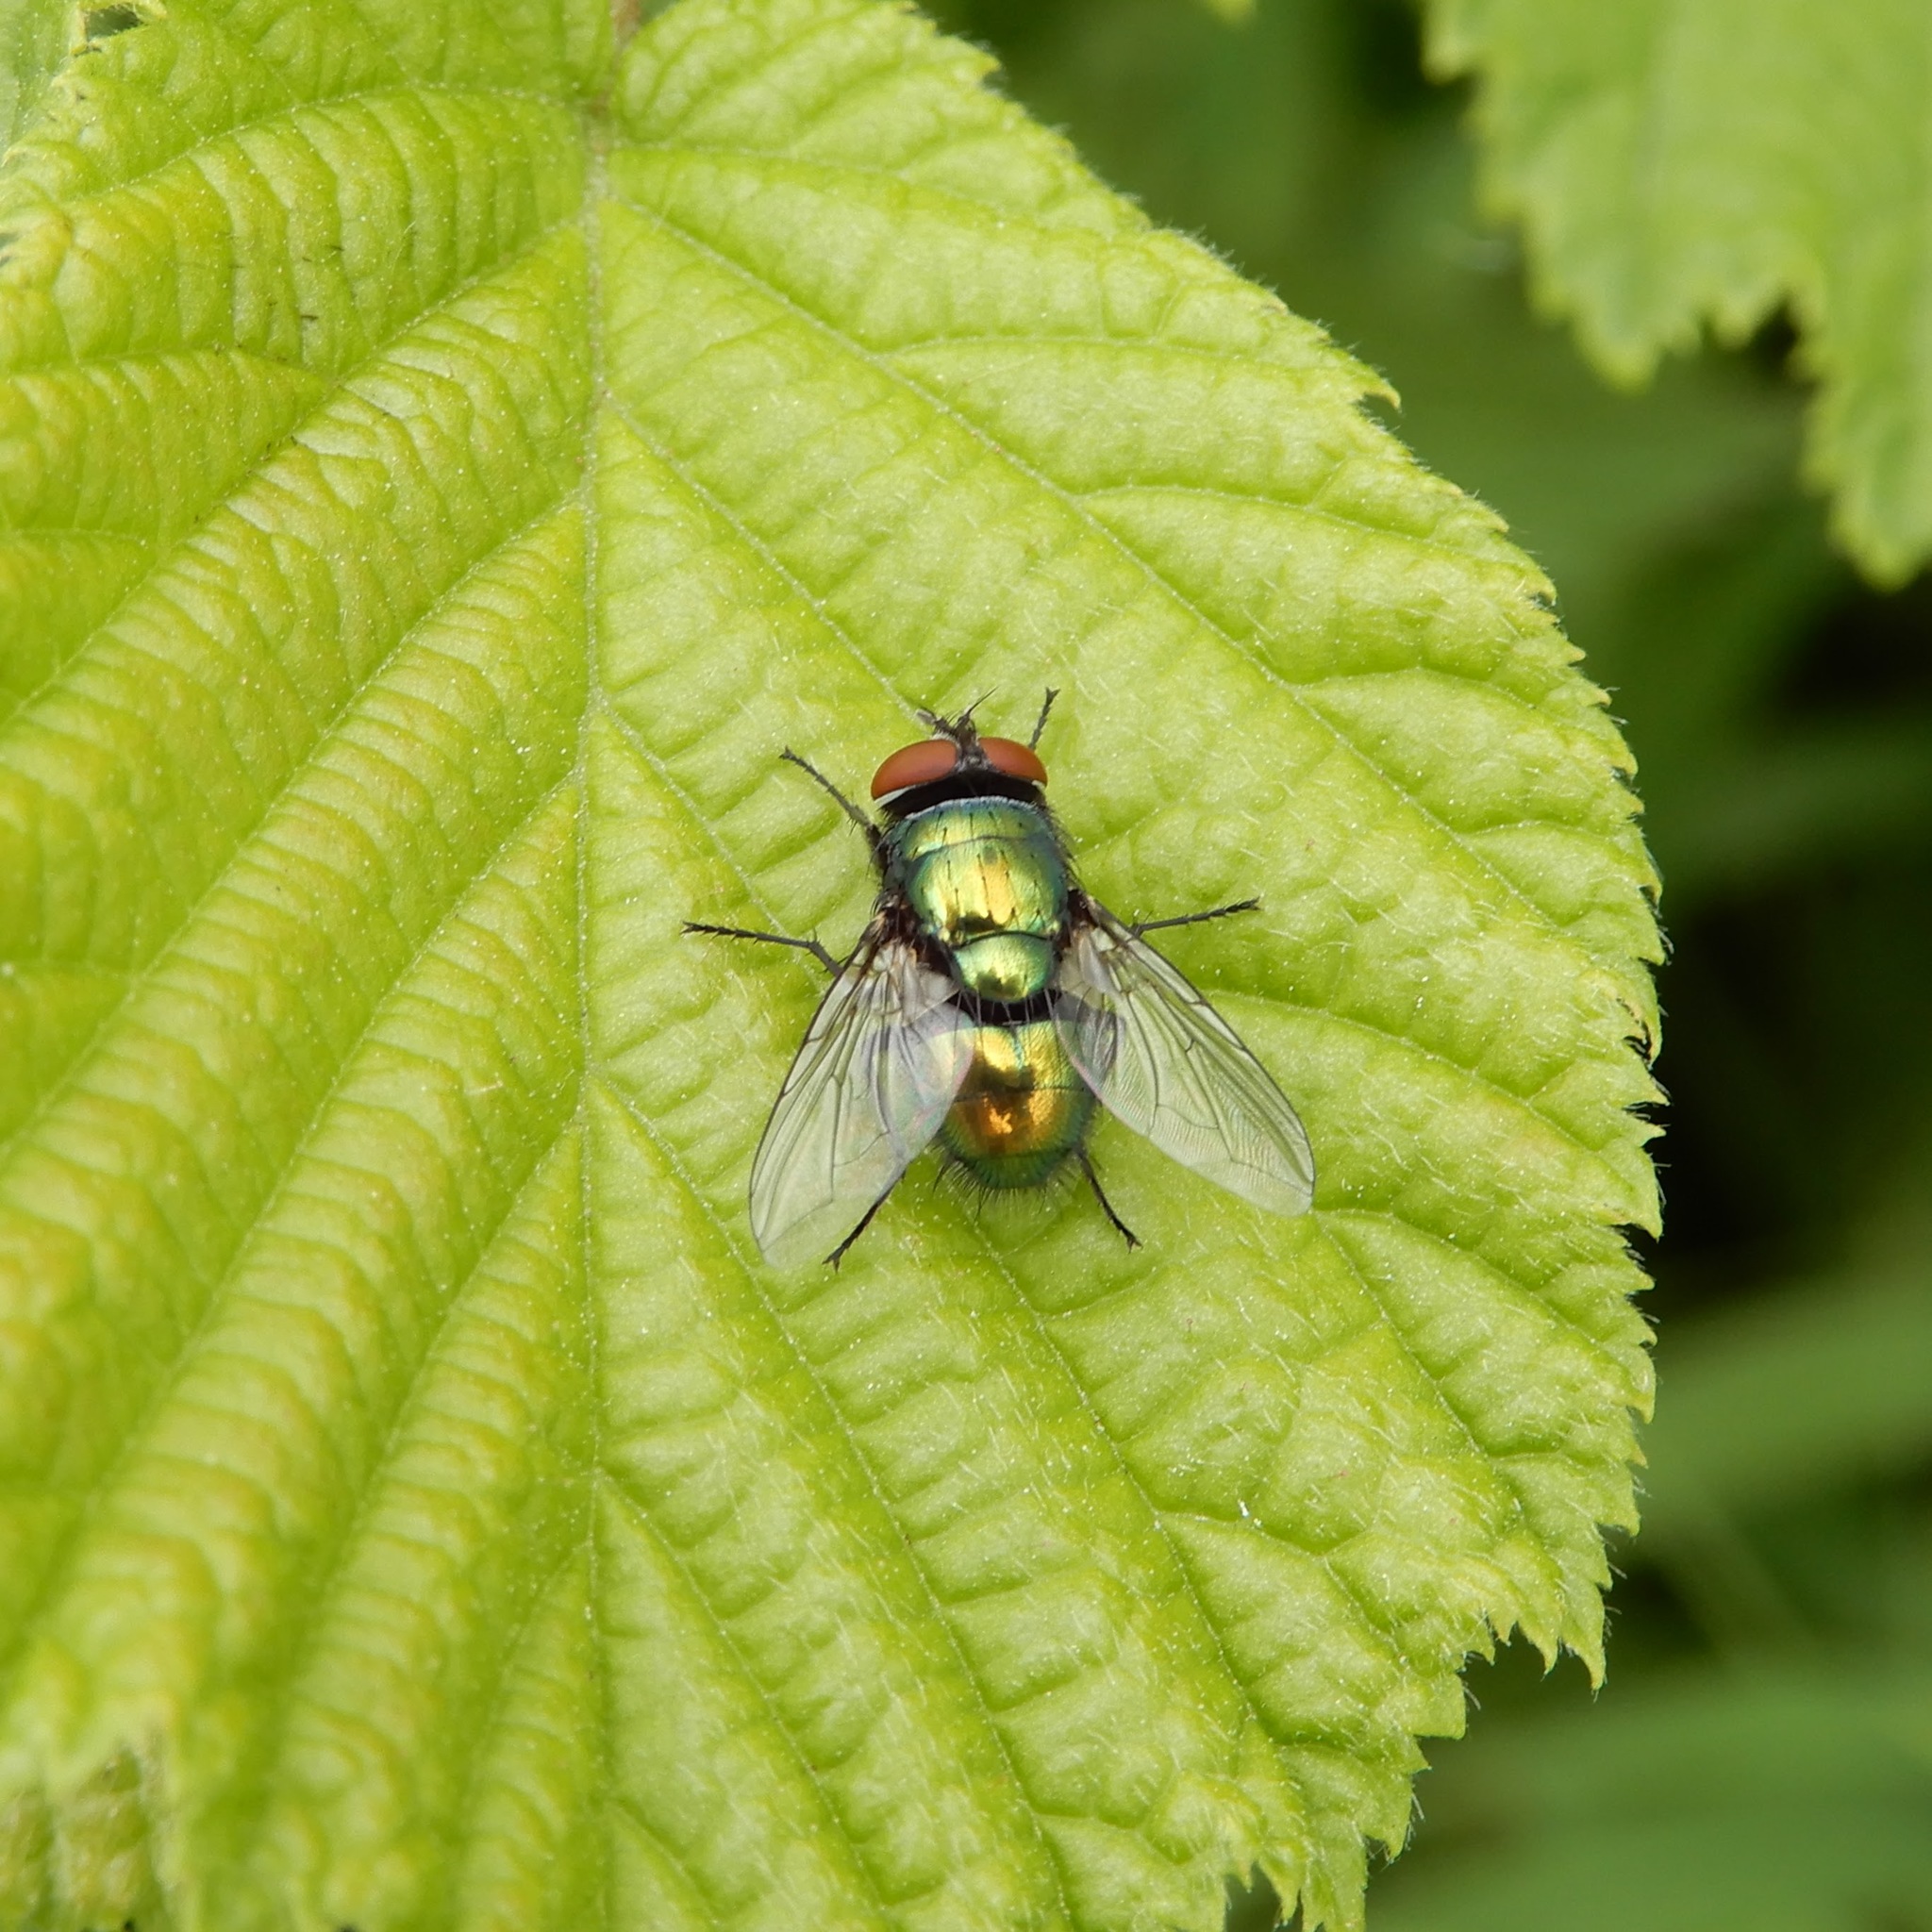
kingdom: Animalia
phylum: Arthropoda
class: Insecta
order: Diptera
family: Calliphoridae
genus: Lucilia
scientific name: Lucilia sericata
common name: Blow fly
